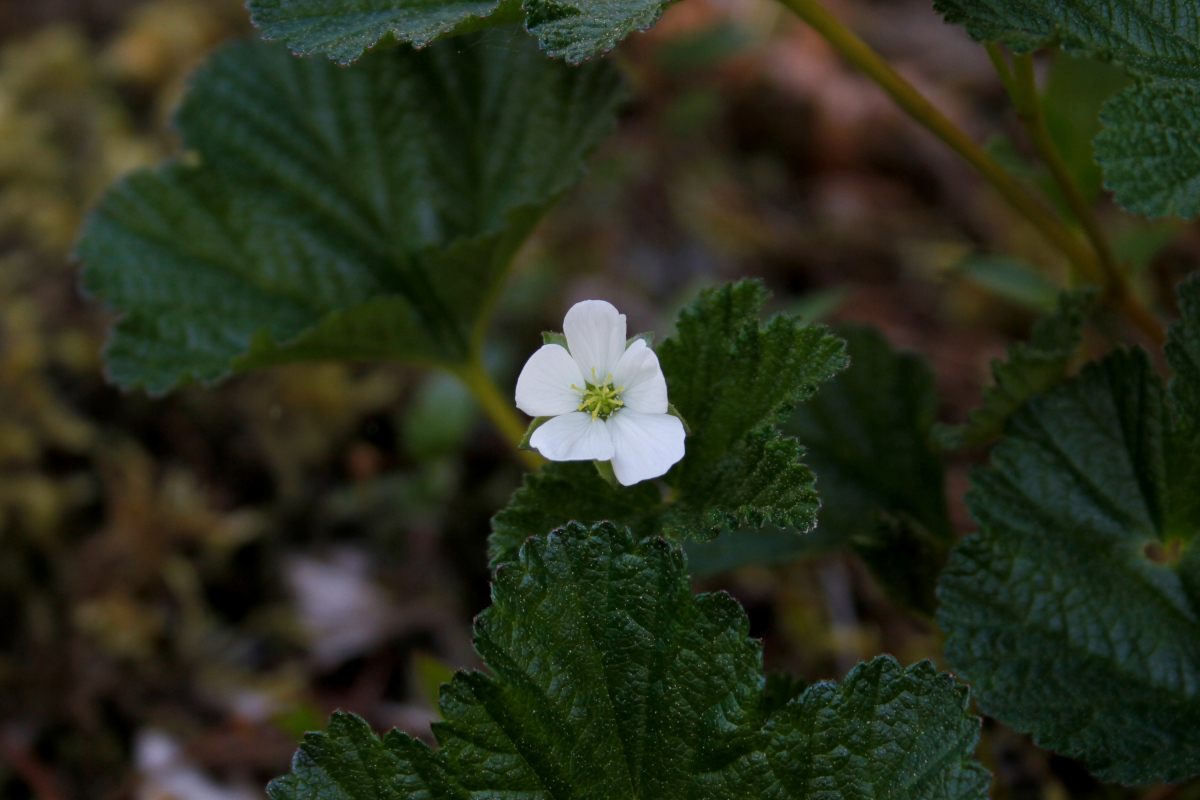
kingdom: Plantae
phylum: Tracheophyta
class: Magnoliopsida
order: Rosales
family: Rosaceae
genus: Rubus
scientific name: Rubus chamaemorus
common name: Cloudberry
